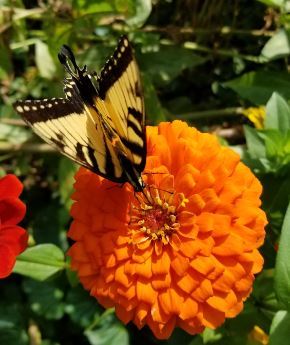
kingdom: Animalia
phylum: Arthropoda
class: Insecta
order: Lepidoptera
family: Papilionidae
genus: Papilio
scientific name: Papilio glaucus
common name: Tiger swallowtail
